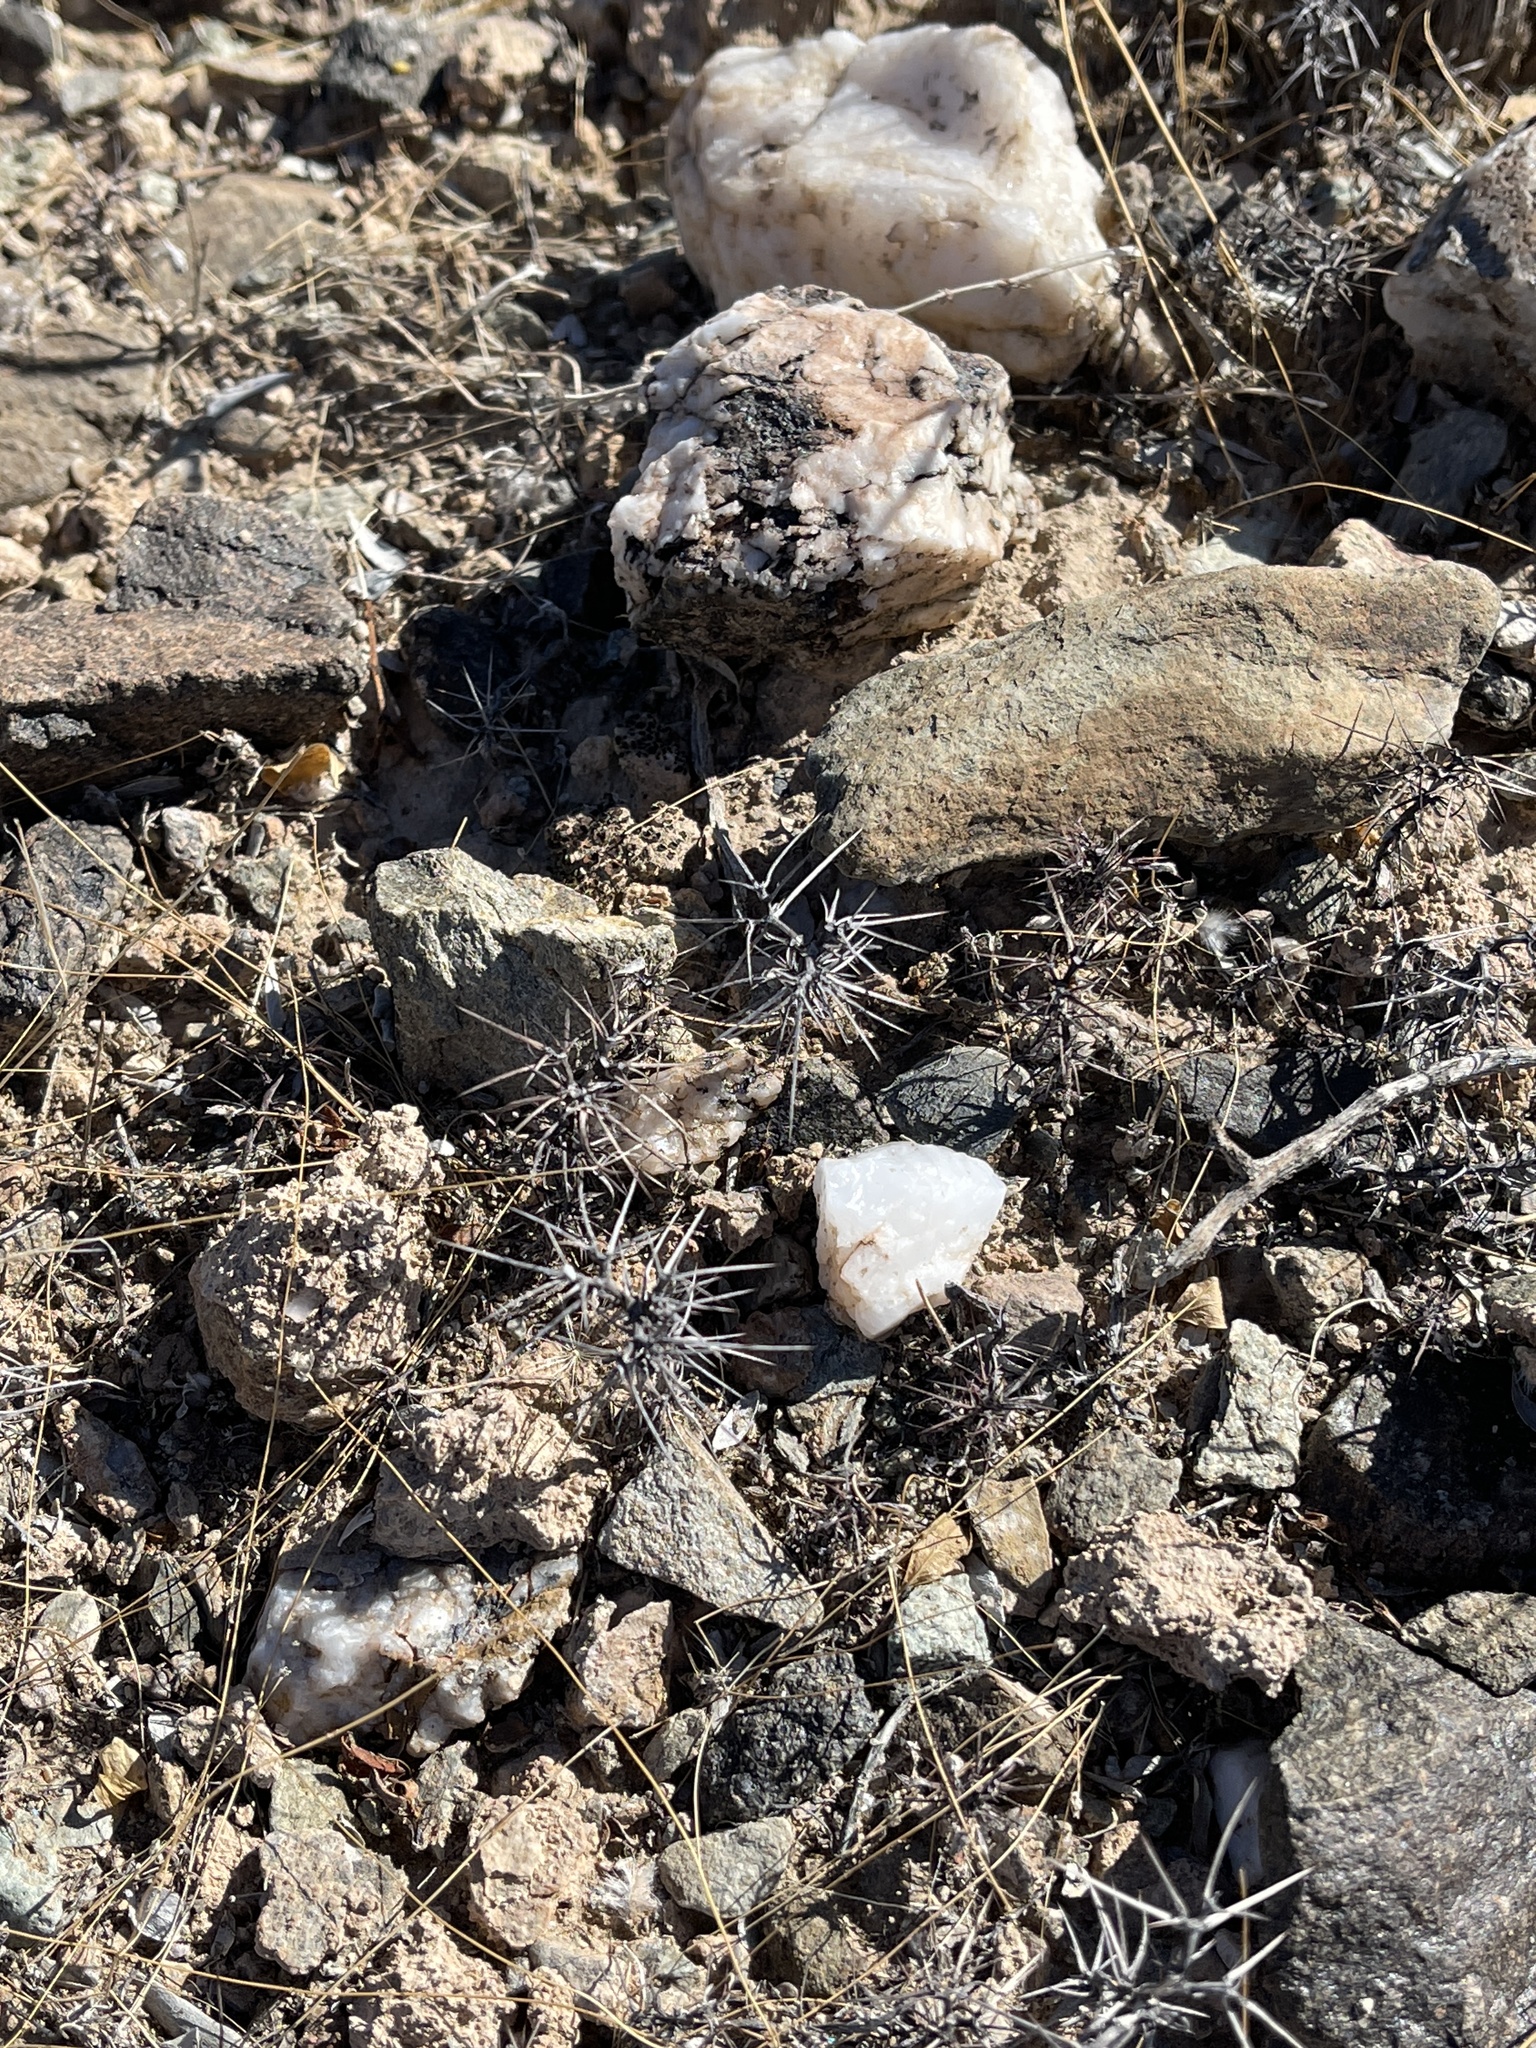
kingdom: Plantae
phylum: Tracheophyta
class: Magnoliopsida
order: Caryophyllales
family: Polygonaceae
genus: Chorizanthe
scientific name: Chorizanthe rigida
